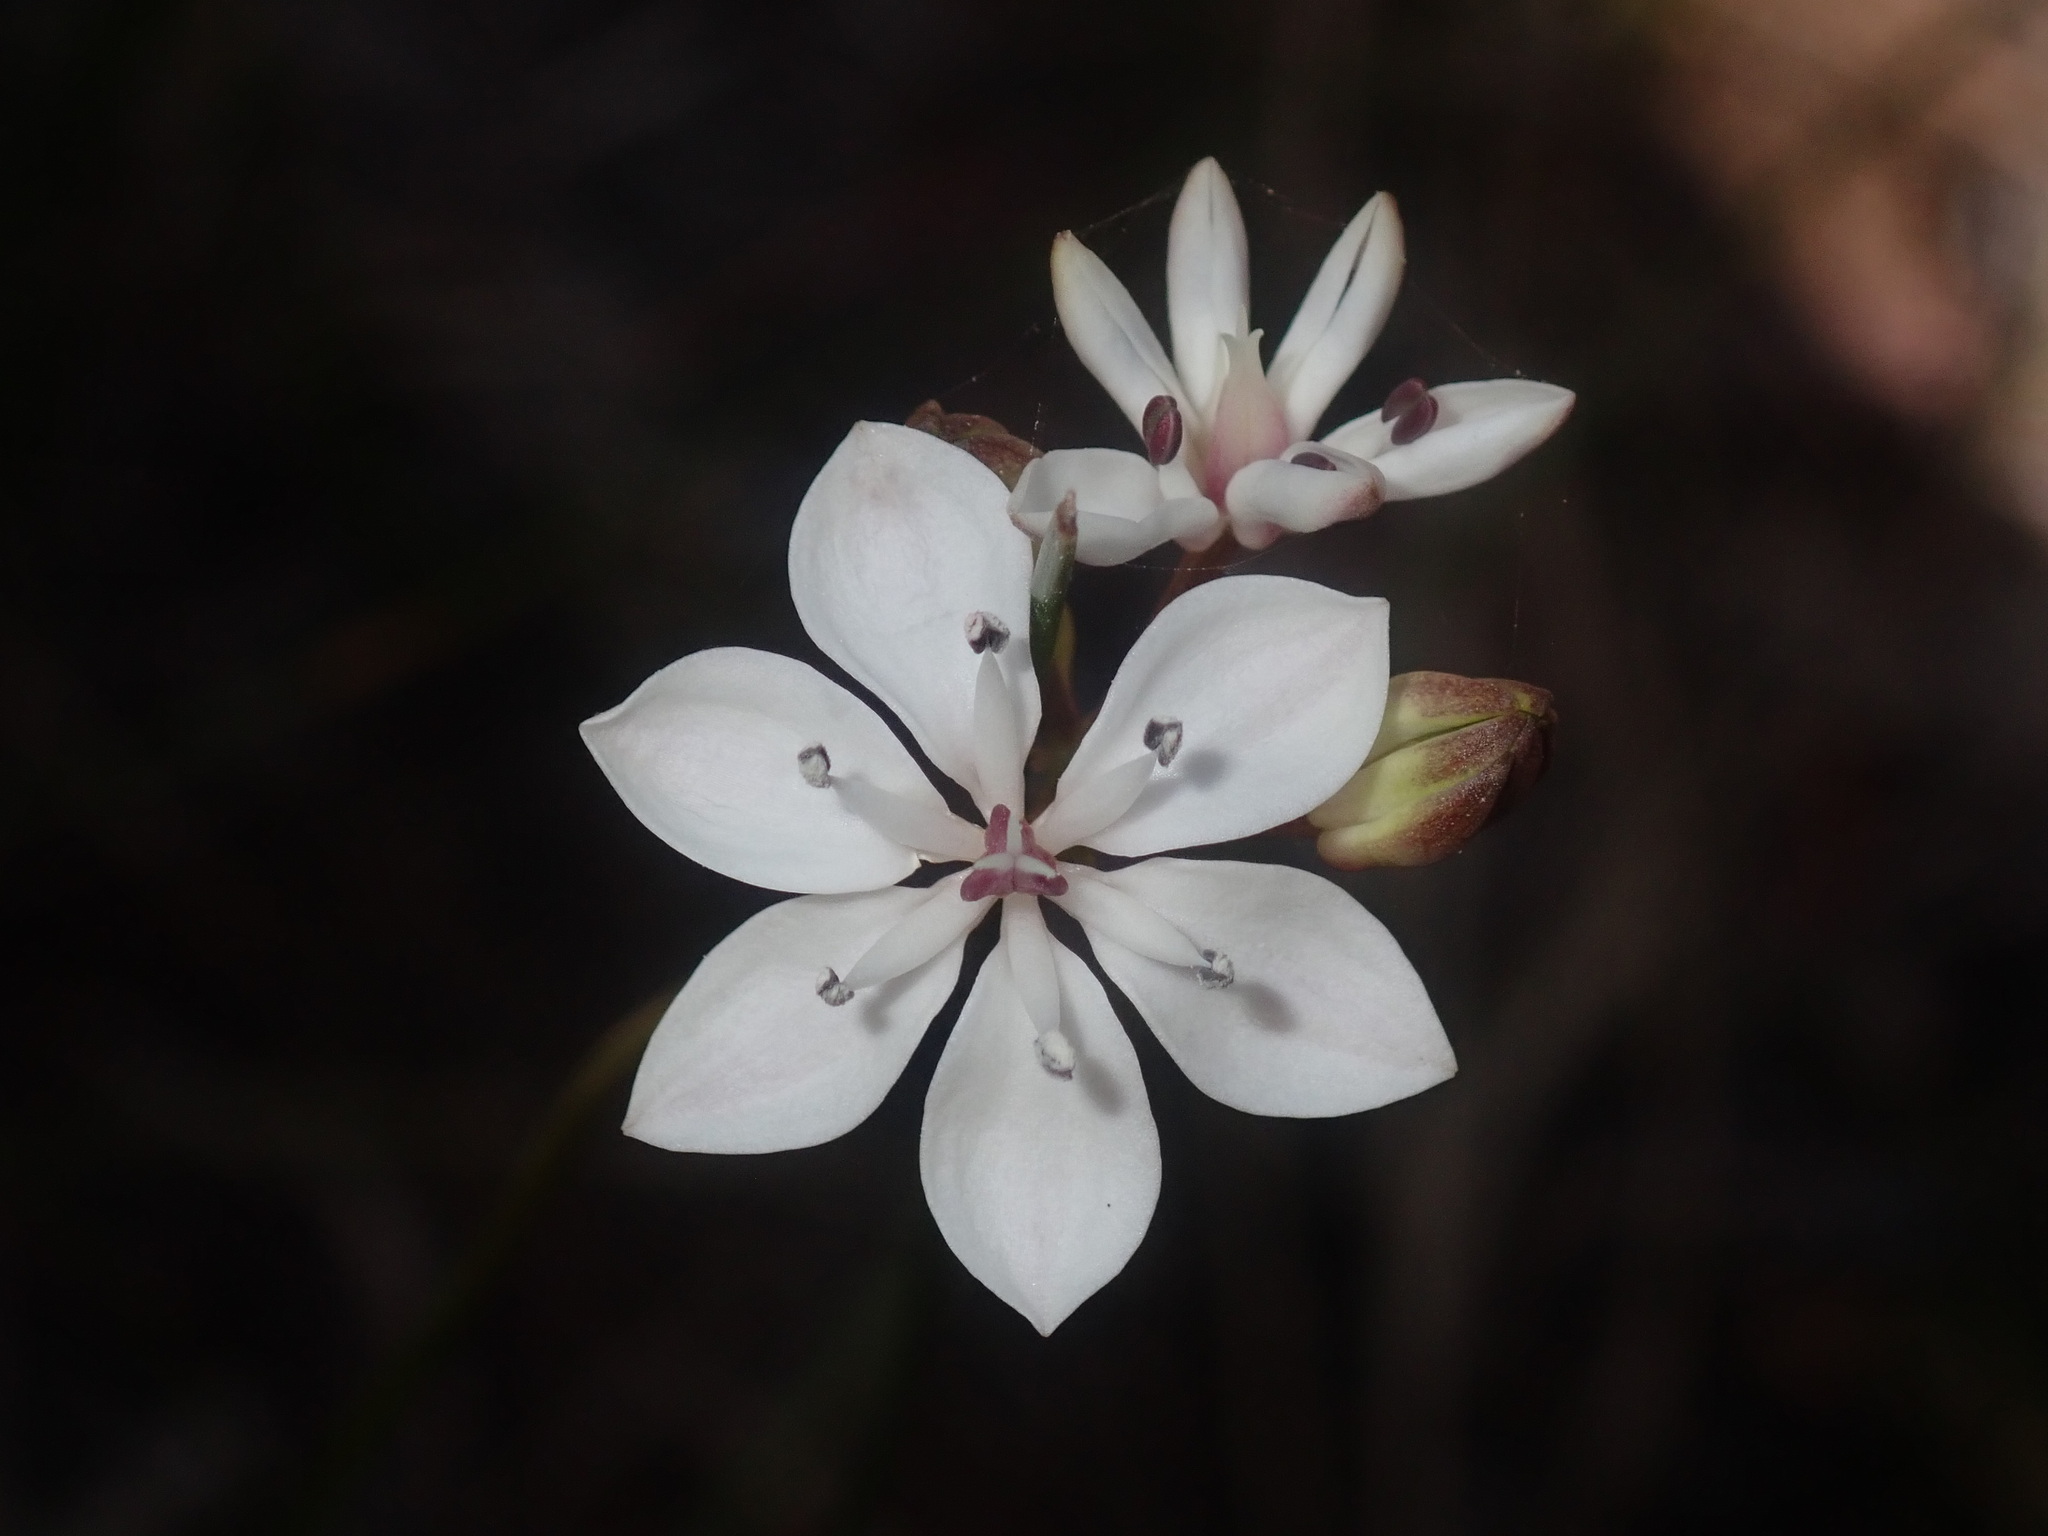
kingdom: Plantae
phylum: Tracheophyta
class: Liliopsida
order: Liliales
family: Colchicaceae
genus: Burchardia
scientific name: Burchardia umbellata
